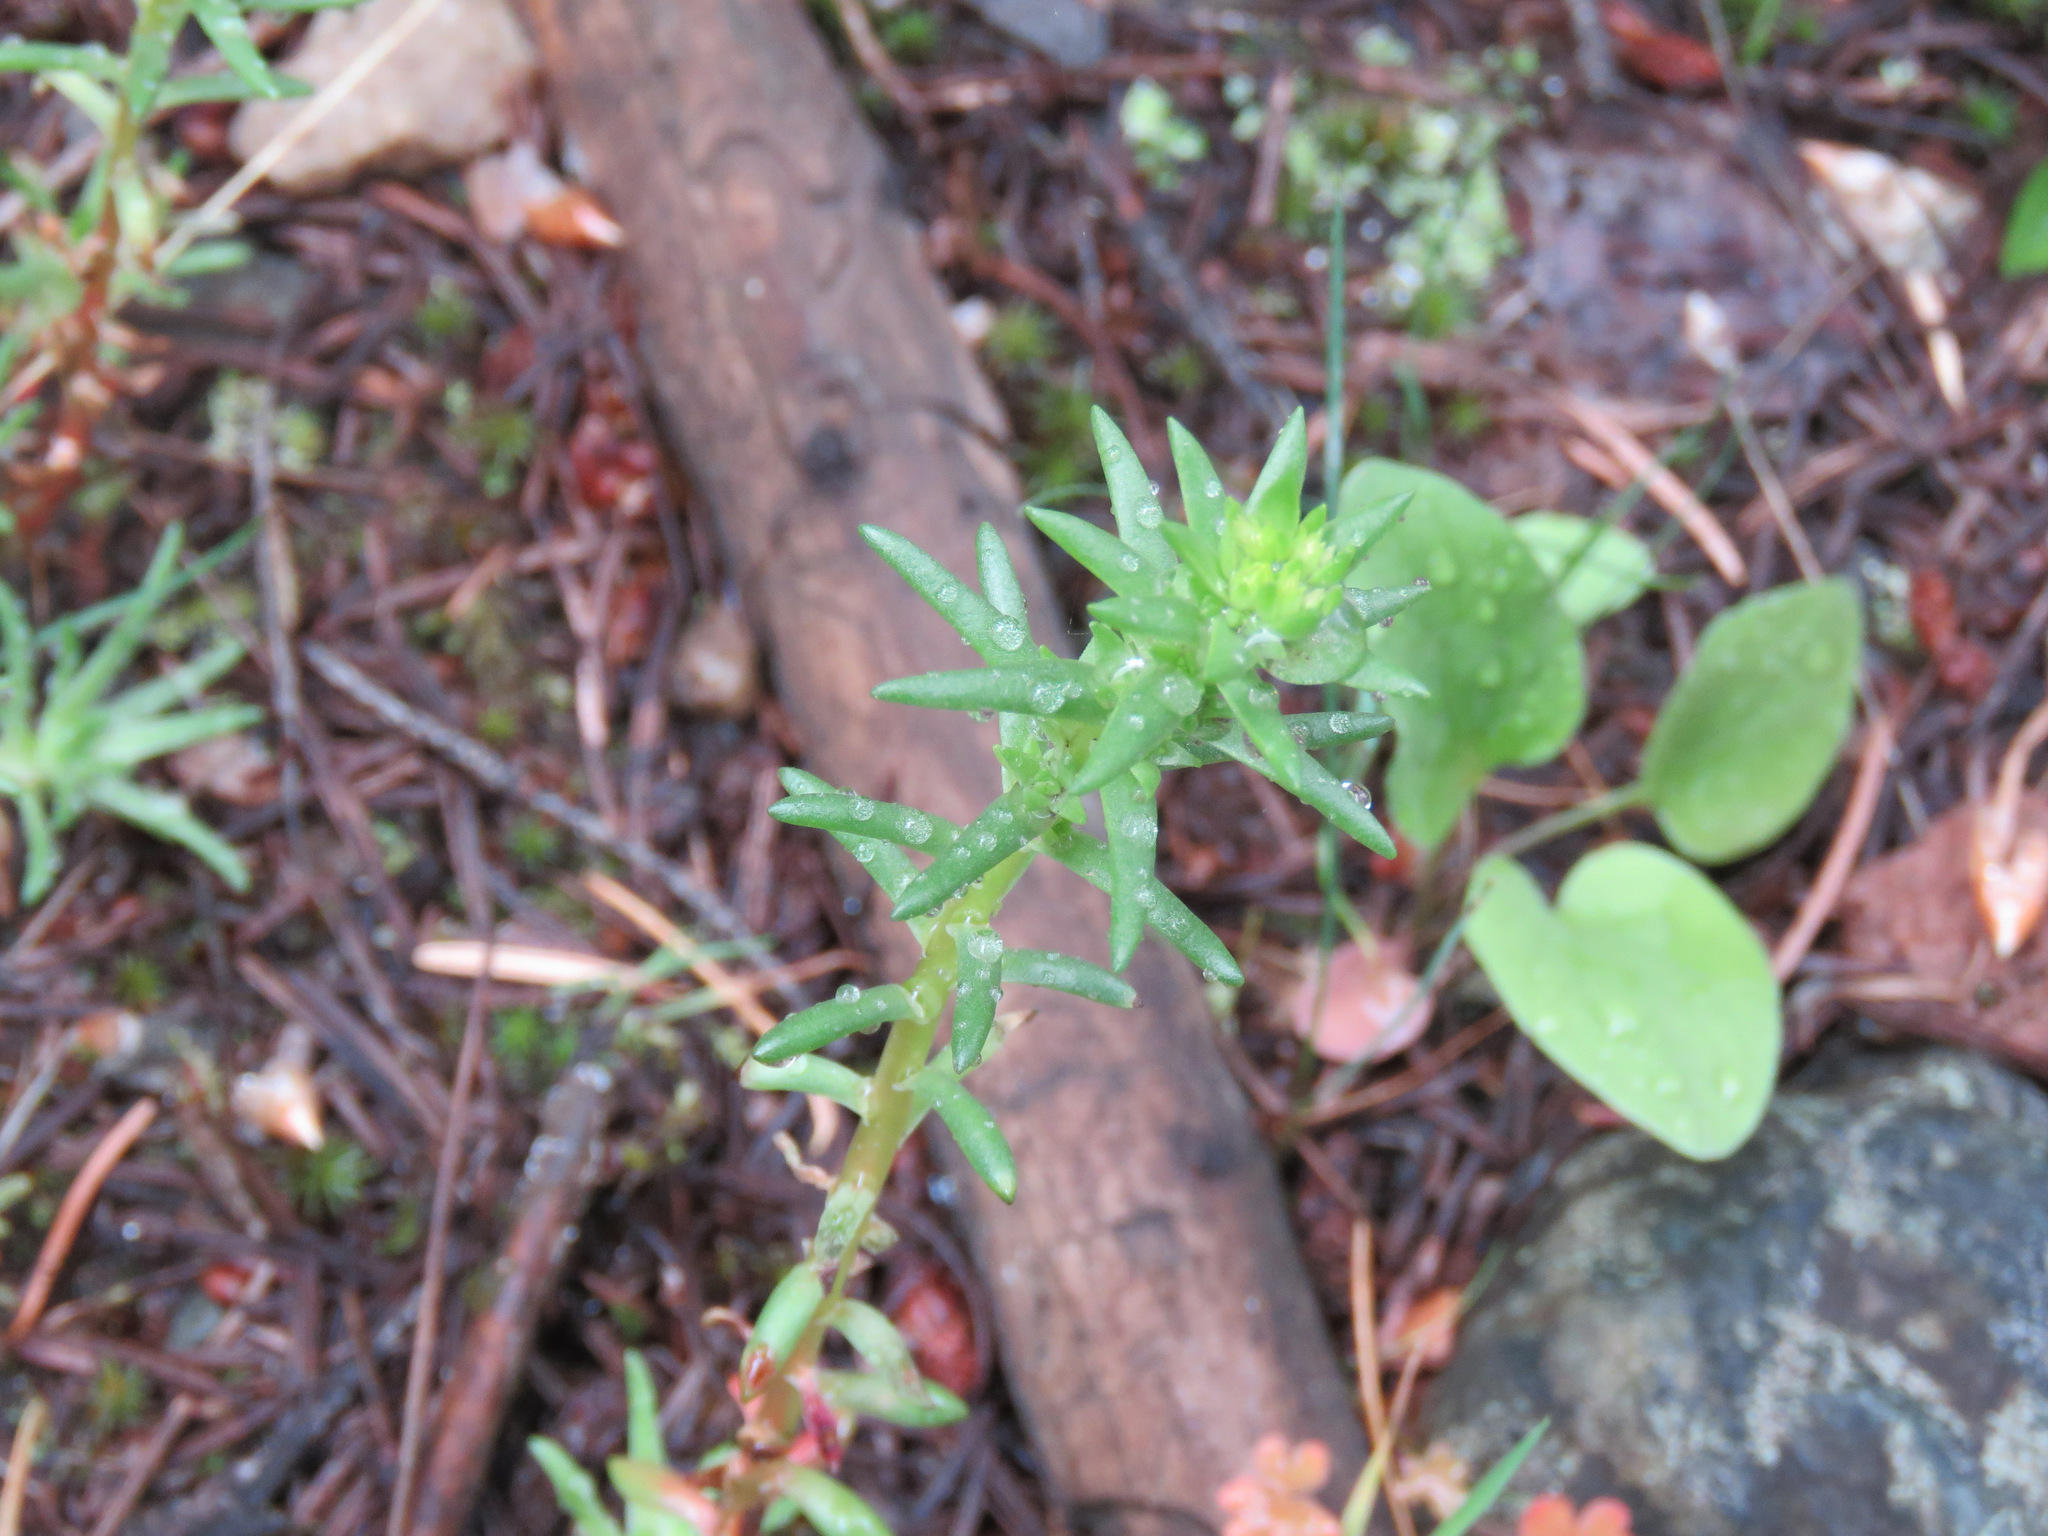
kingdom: Plantae
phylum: Tracheophyta
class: Magnoliopsida
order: Saxifragales
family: Crassulaceae
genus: Sedum
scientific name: Sedum stenopetalum
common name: Narrow-petaled stonecrop
